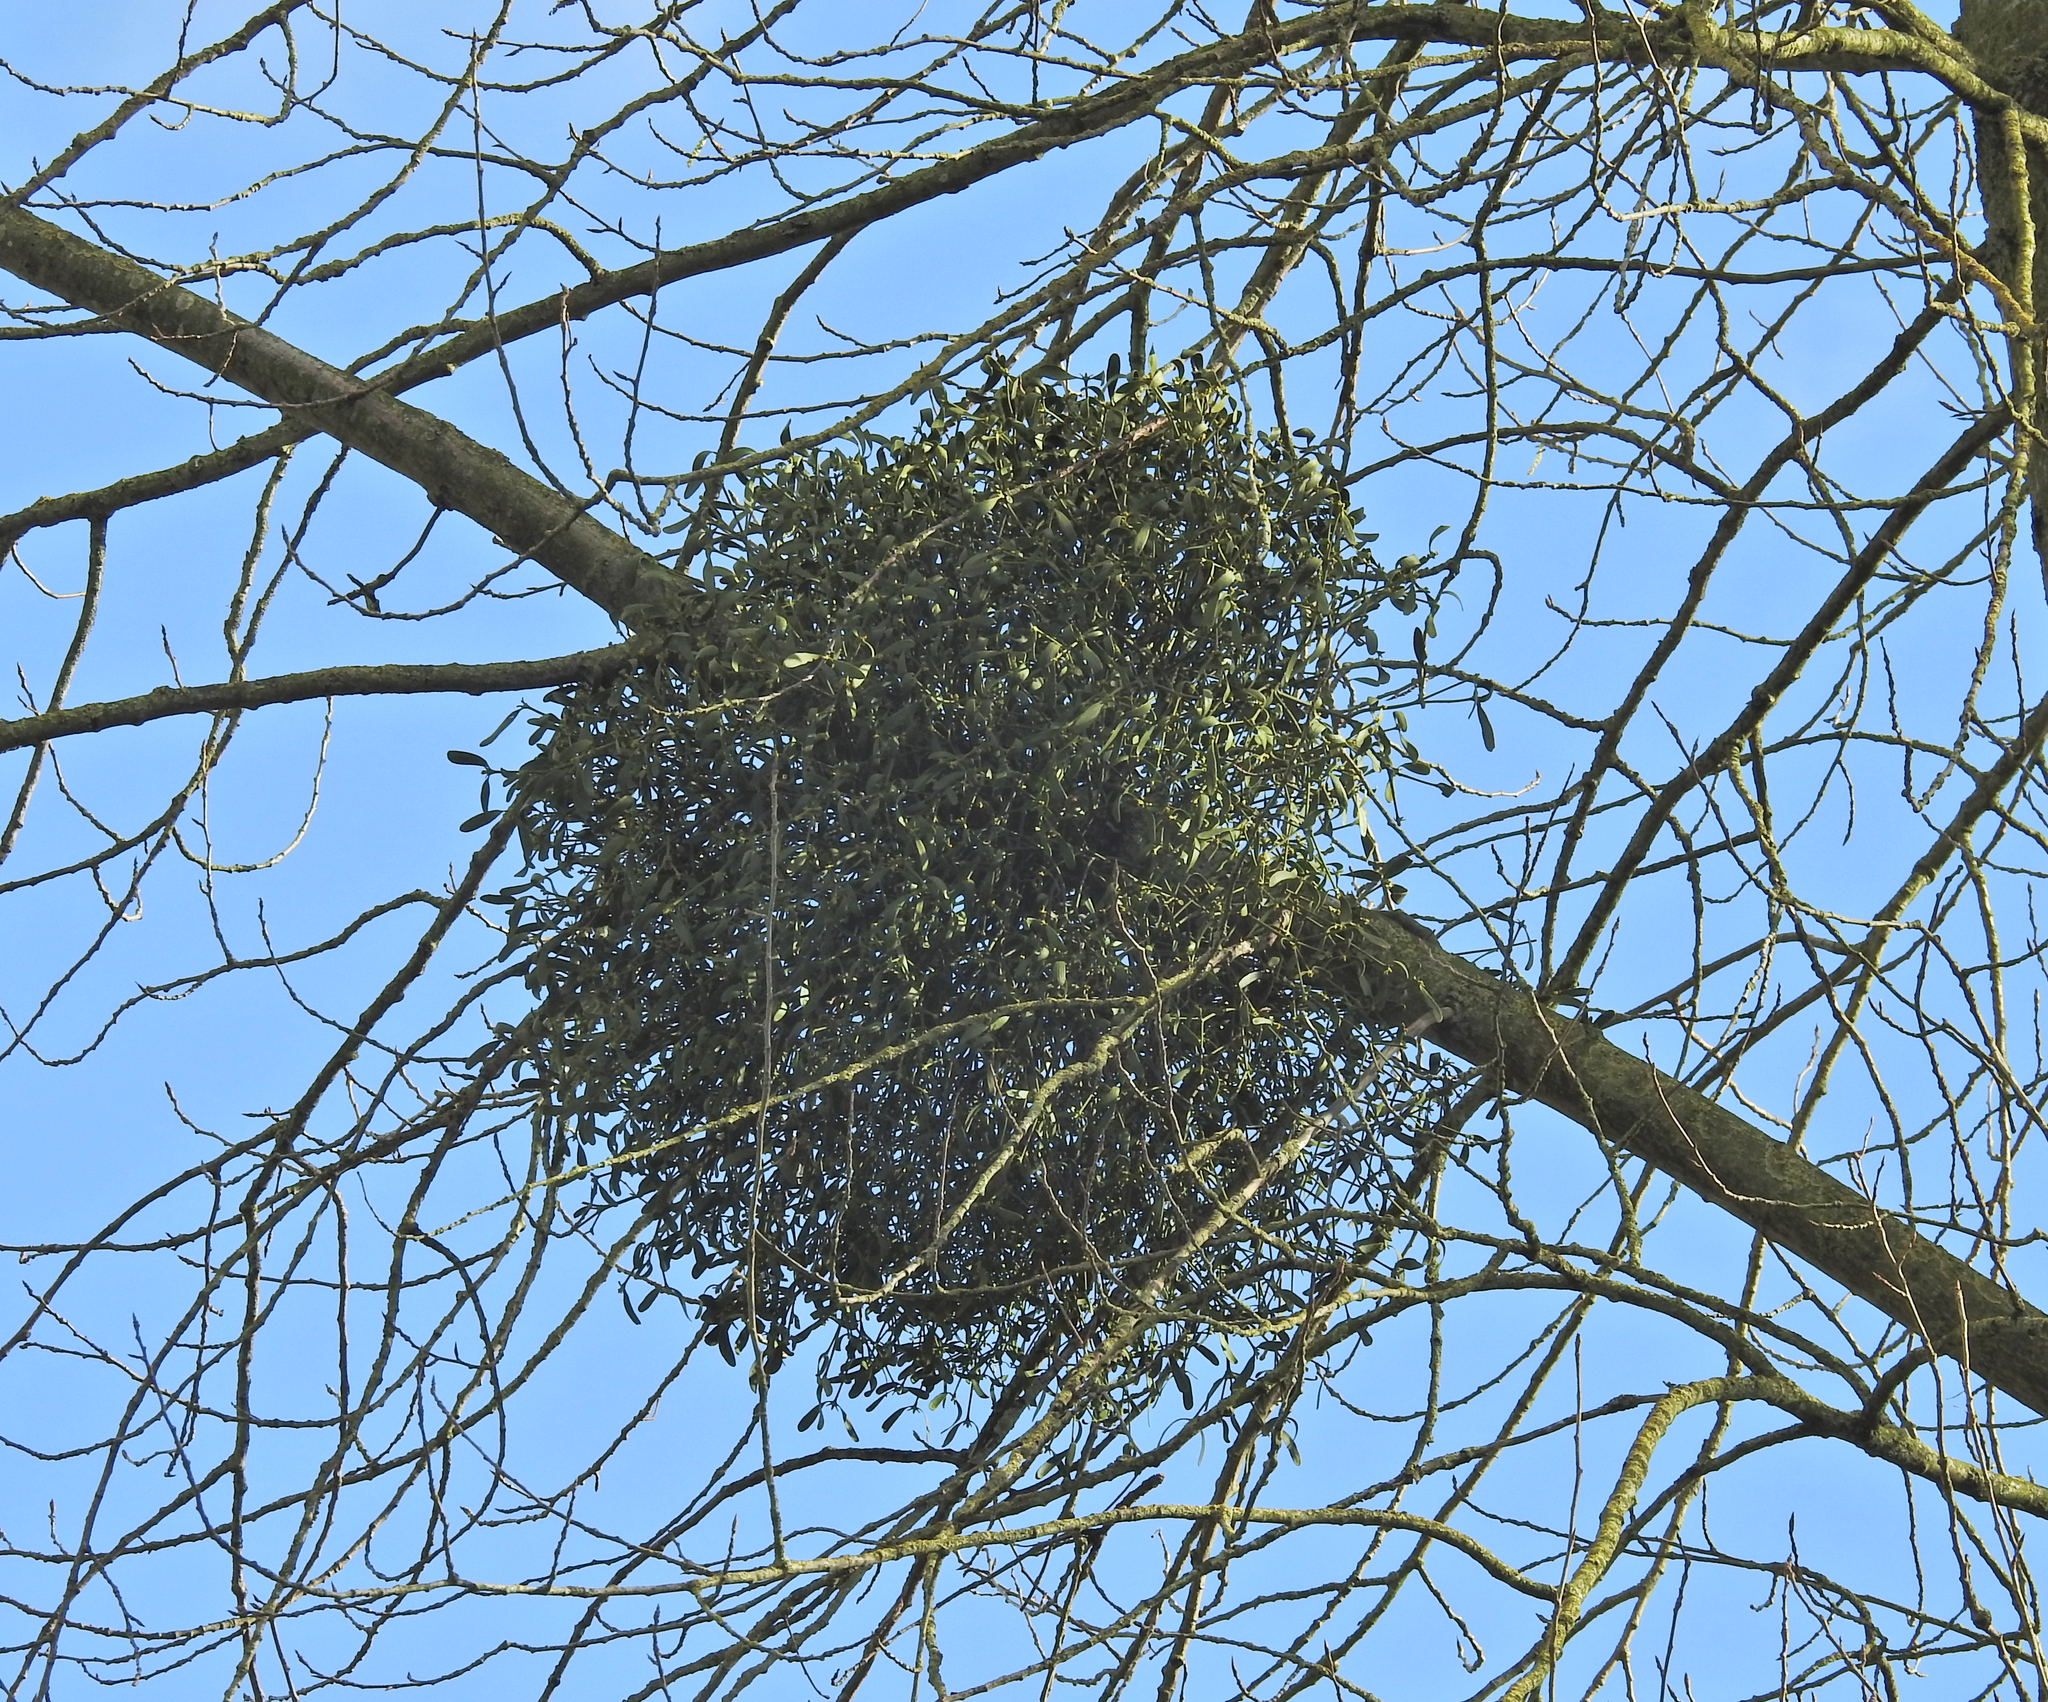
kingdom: Plantae
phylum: Tracheophyta
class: Magnoliopsida
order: Santalales
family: Viscaceae
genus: Viscum
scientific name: Viscum album
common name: Mistletoe
